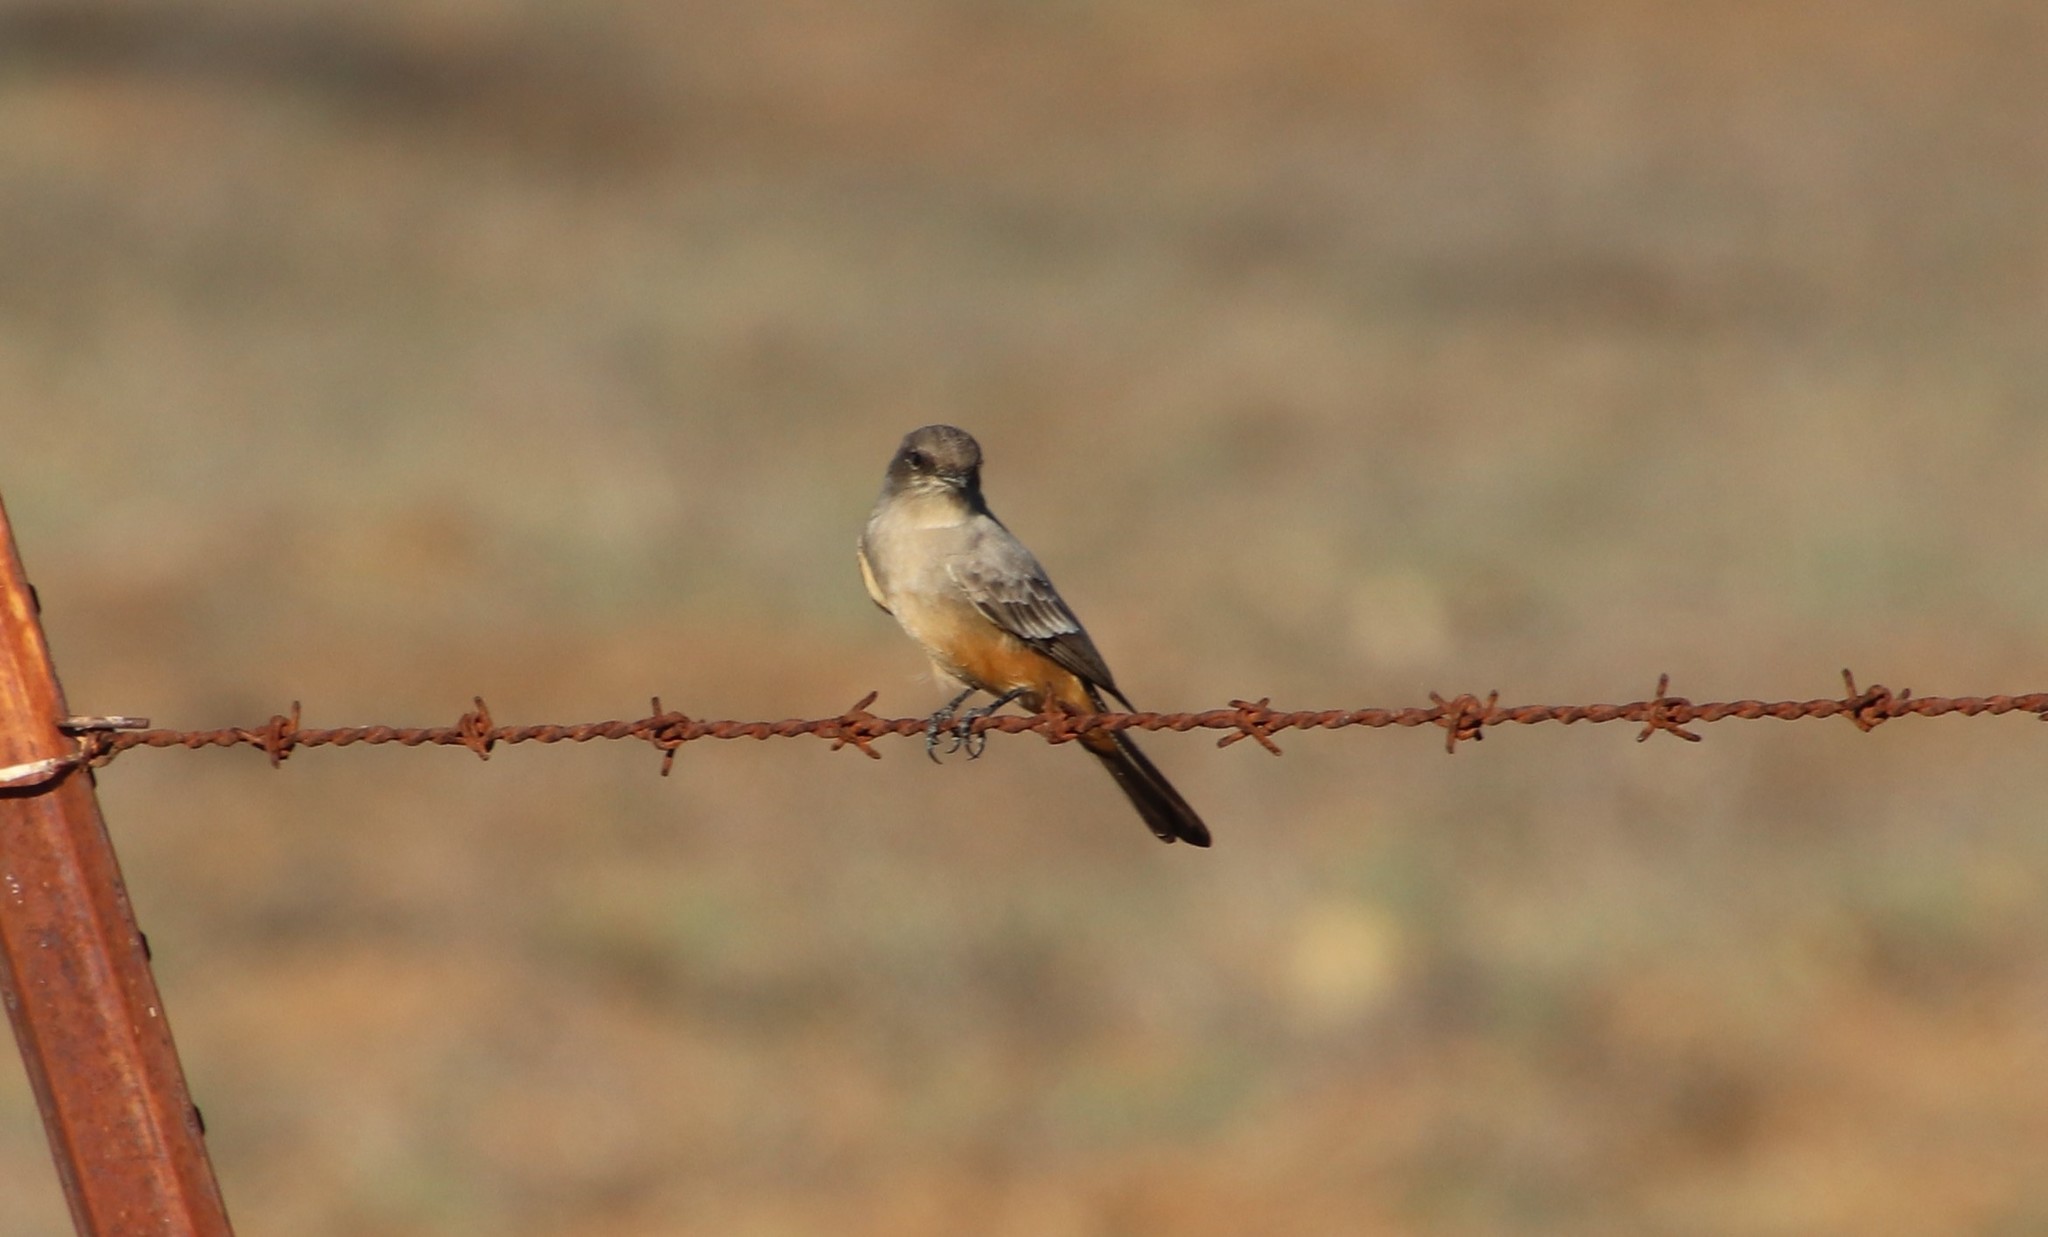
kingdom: Animalia
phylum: Chordata
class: Aves
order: Passeriformes
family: Tyrannidae
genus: Sayornis
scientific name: Sayornis saya
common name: Say's phoebe
